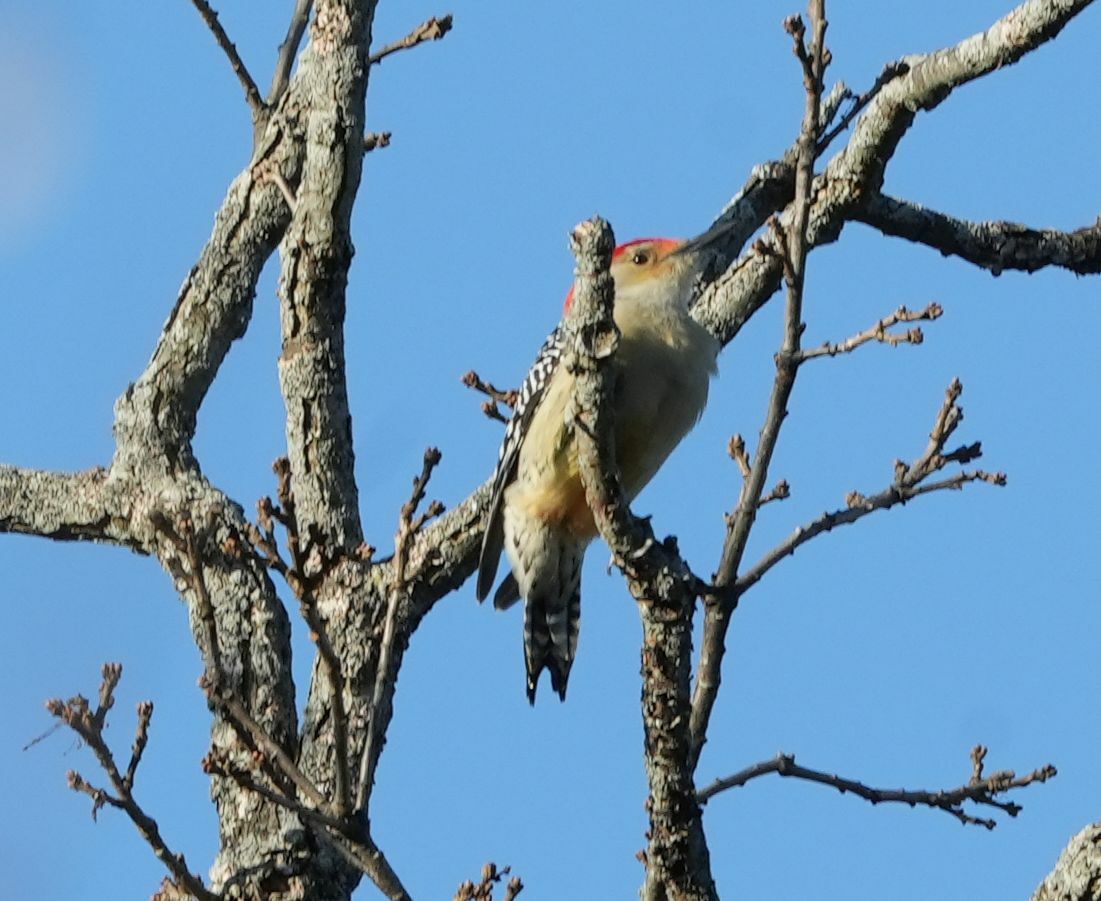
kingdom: Animalia
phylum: Chordata
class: Aves
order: Piciformes
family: Picidae
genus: Melanerpes
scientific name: Melanerpes carolinus
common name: Red-bellied woodpecker
